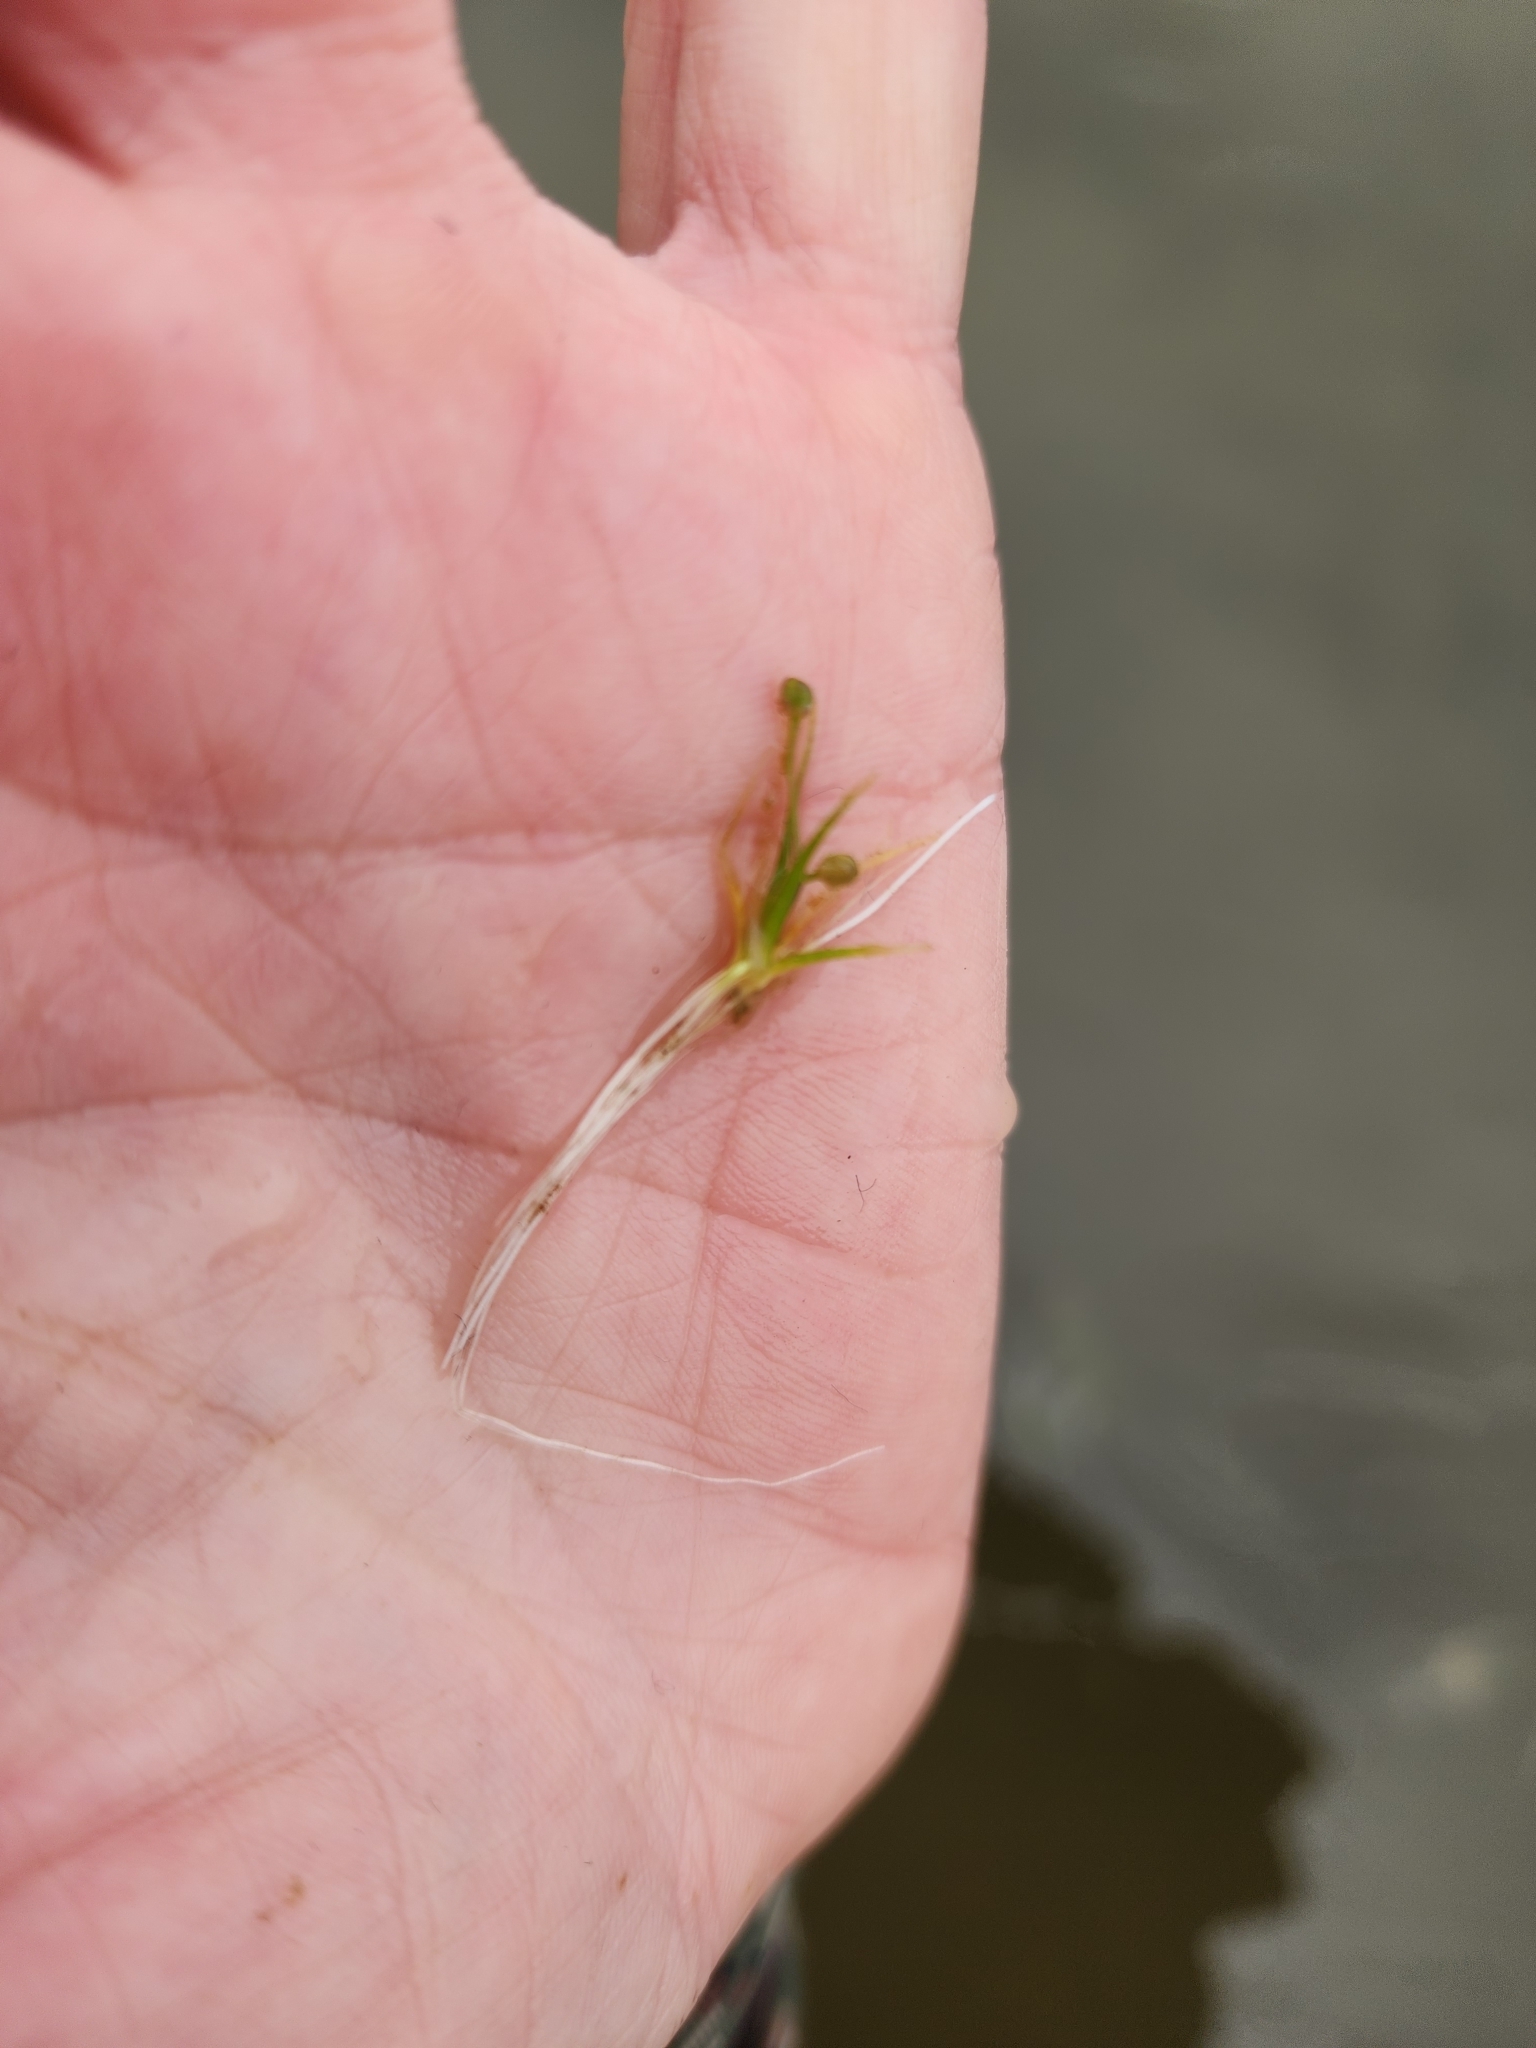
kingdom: Plantae
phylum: Tracheophyta
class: Magnoliopsida
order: Brassicales
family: Brassicaceae
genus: Subularia
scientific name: Subularia aquatica
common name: Awlwort
